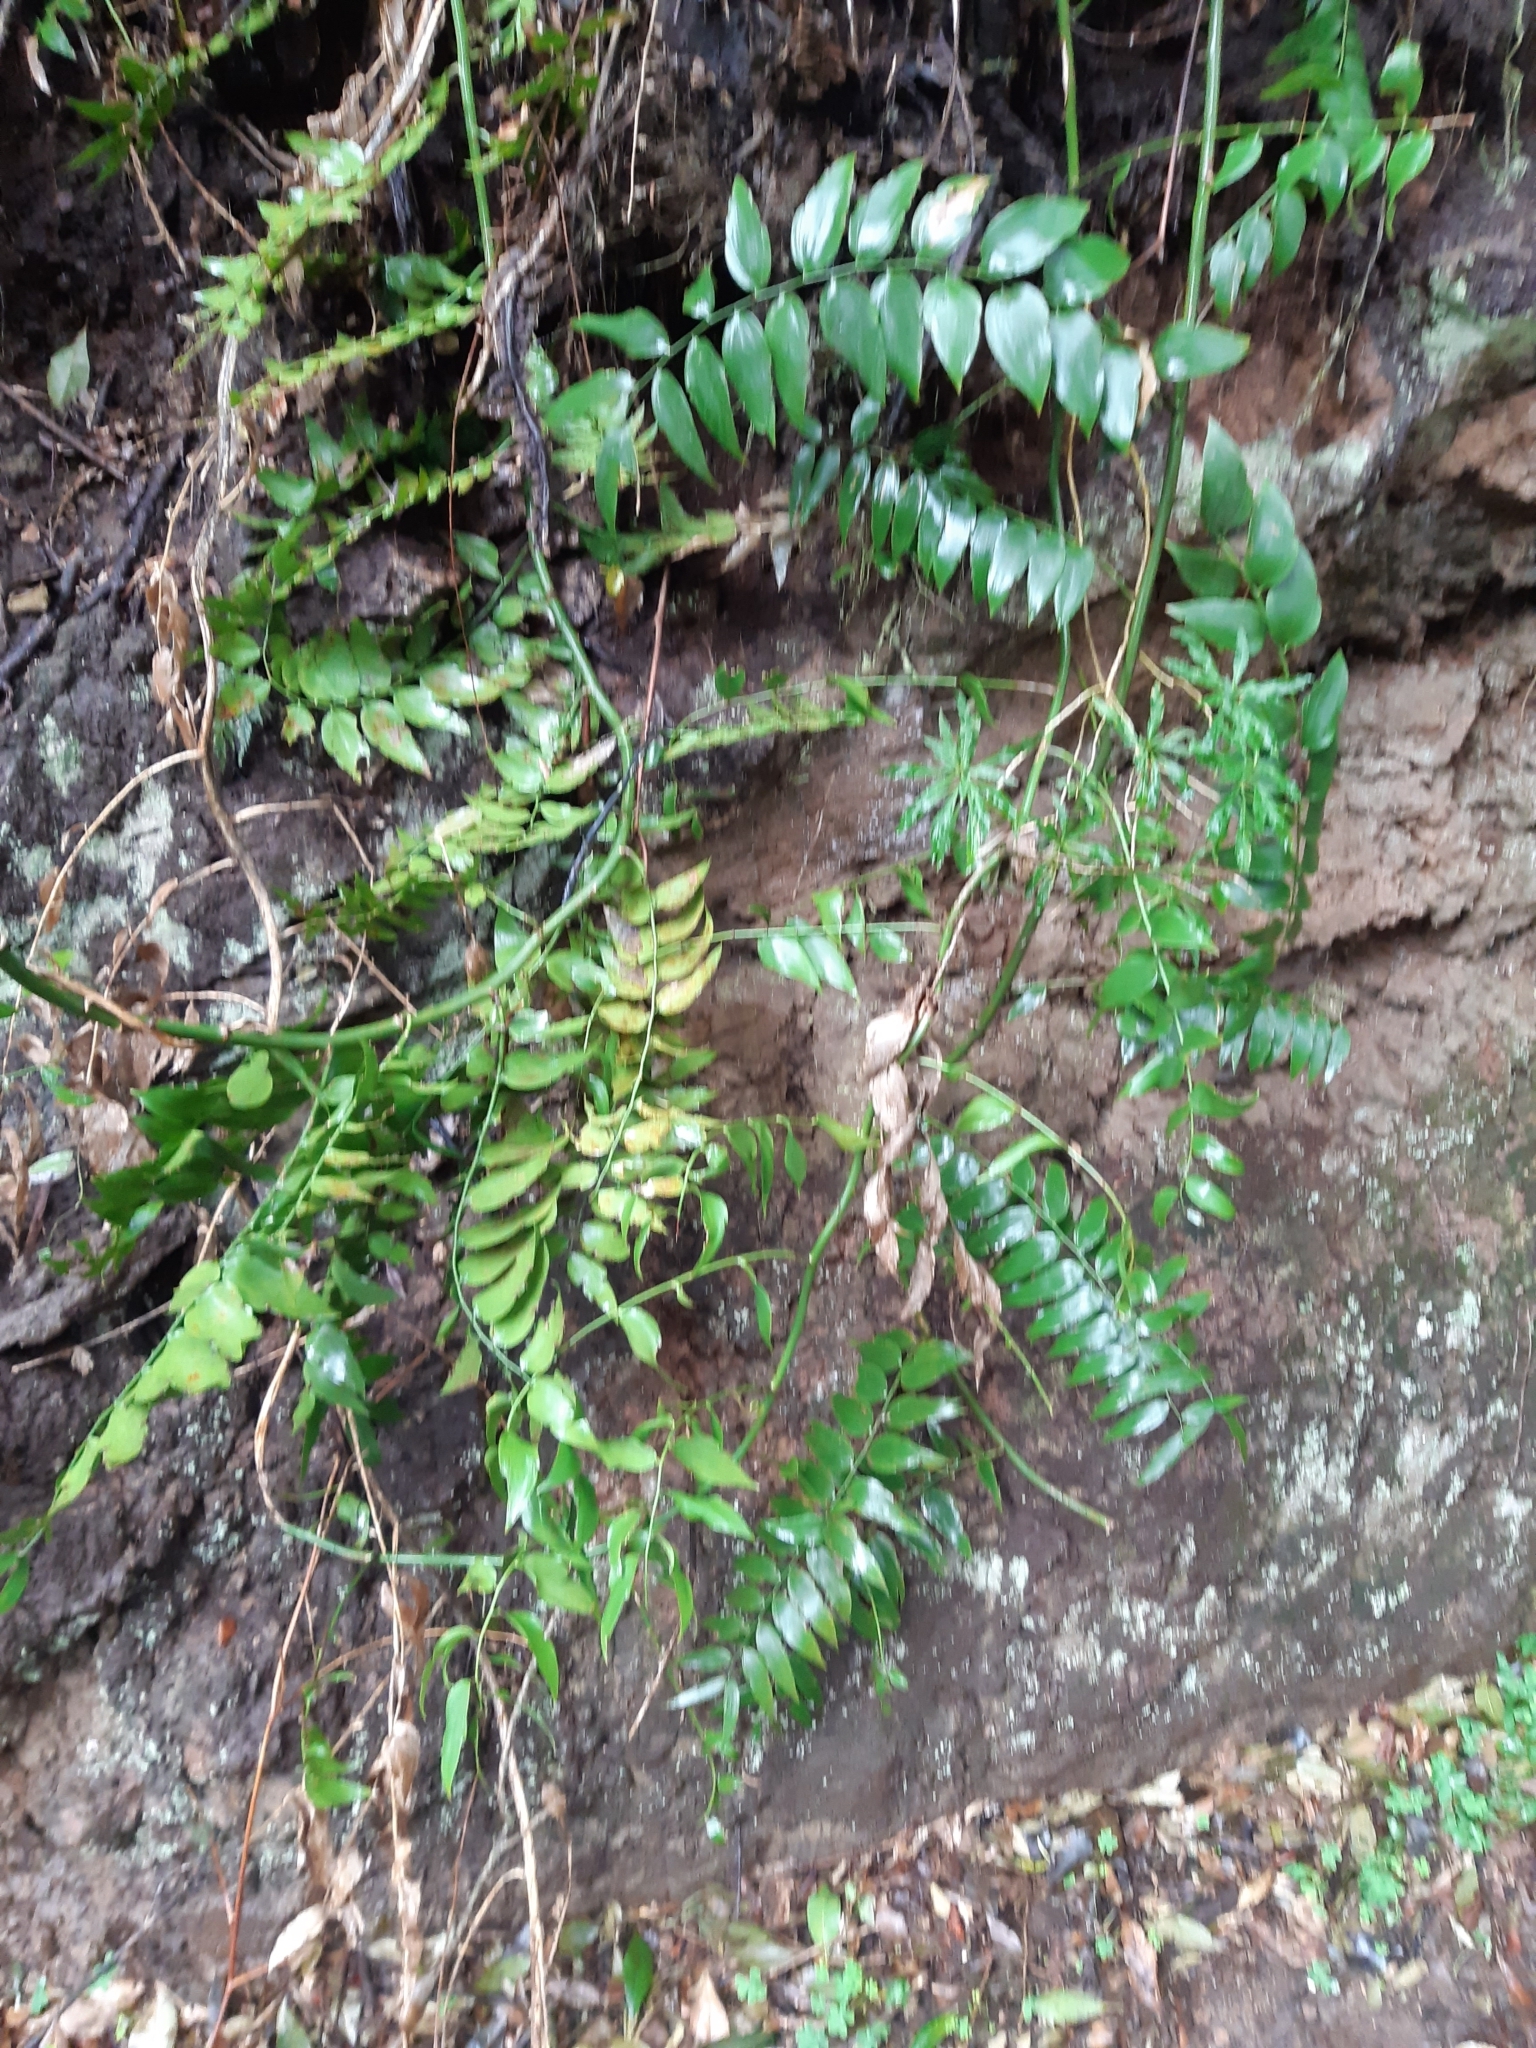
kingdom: Plantae
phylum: Tracheophyta
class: Liliopsida
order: Asparagales
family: Asparagaceae
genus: Semele
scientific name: Semele androgyna
